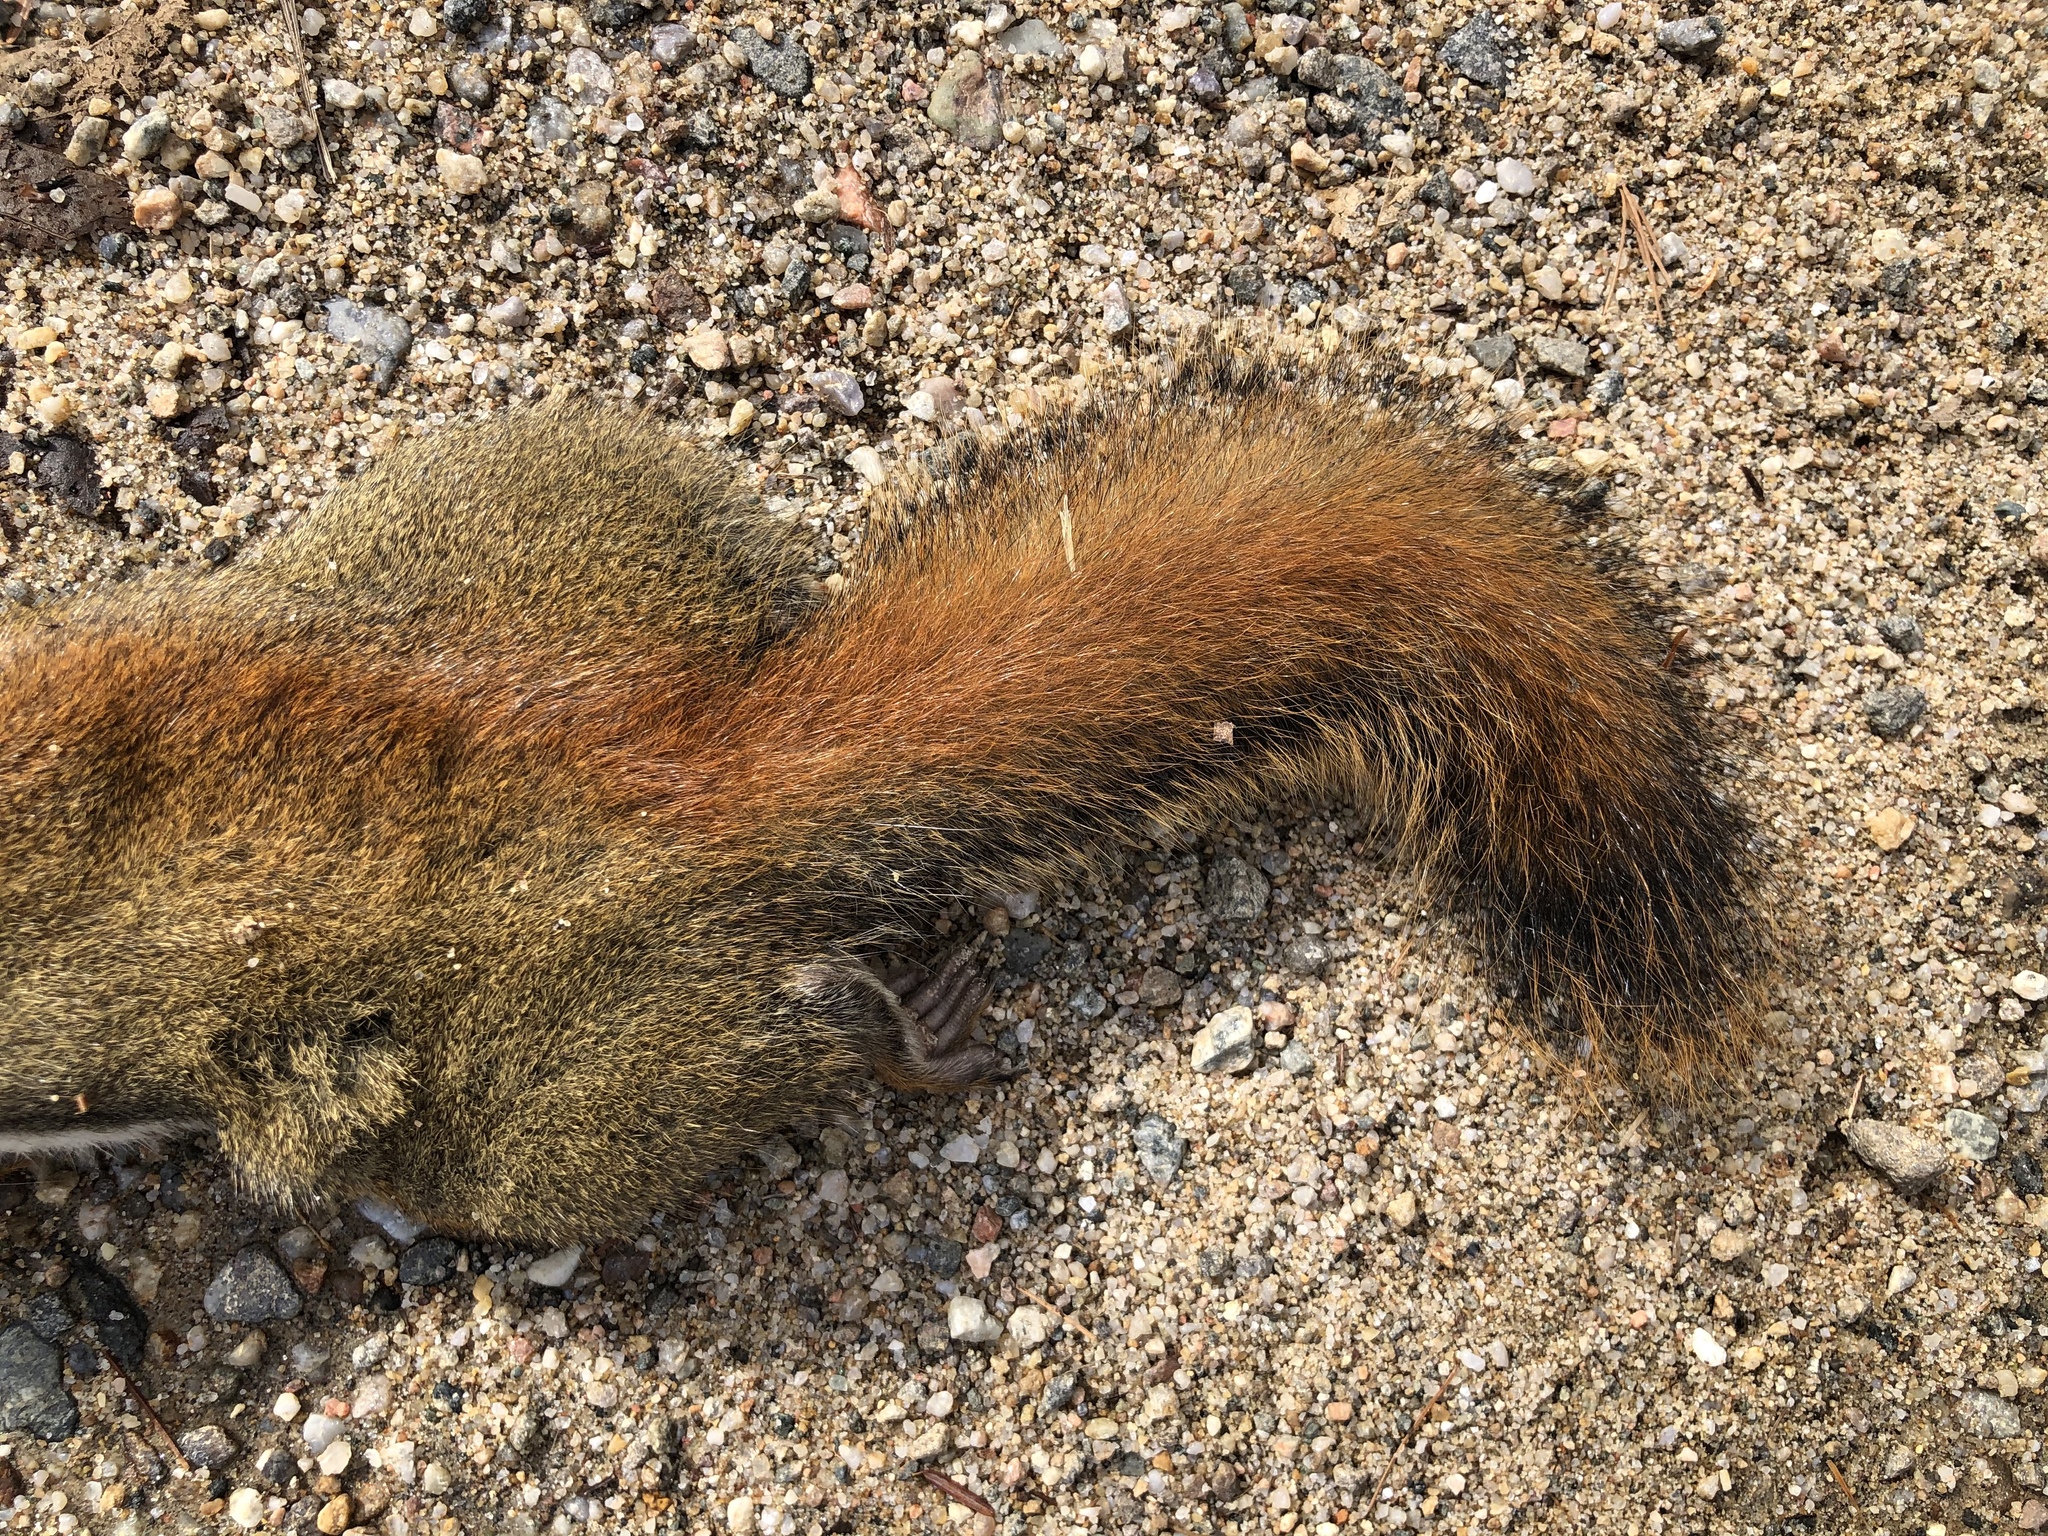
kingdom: Animalia
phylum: Chordata
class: Mammalia
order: Rodentia
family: Sciuridae
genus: Tamiasciurus
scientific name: Tamiasciurus hudsonicus
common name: Red squirrel
